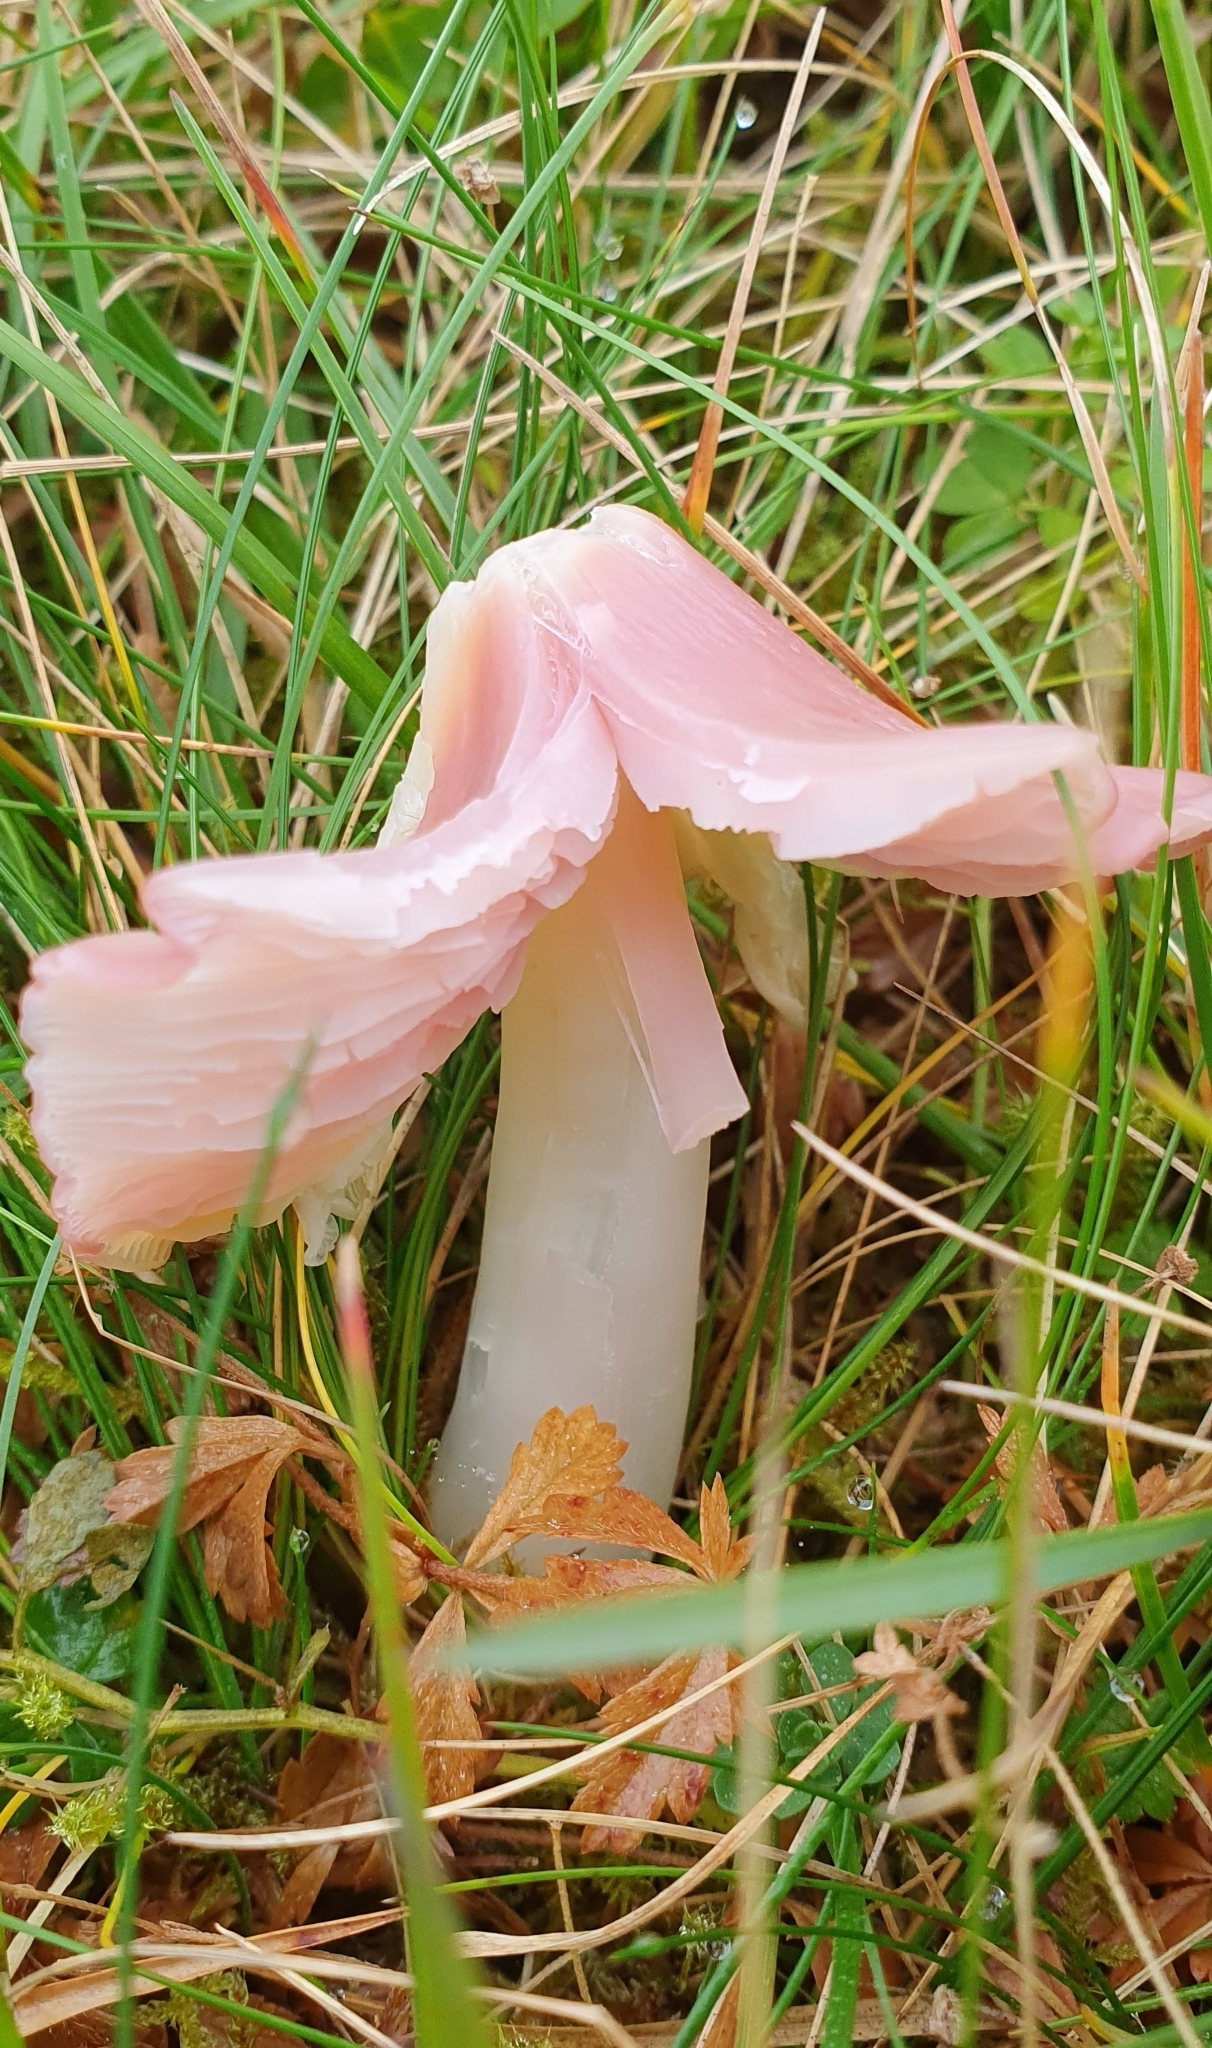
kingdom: Fungi
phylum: Basidiomycota
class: Agaricomycetes
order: Agaricales
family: Hygrophoraceae
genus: Porpolomopsis
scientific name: Porpolomopsis calyptriformis
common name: Pink waxcap
